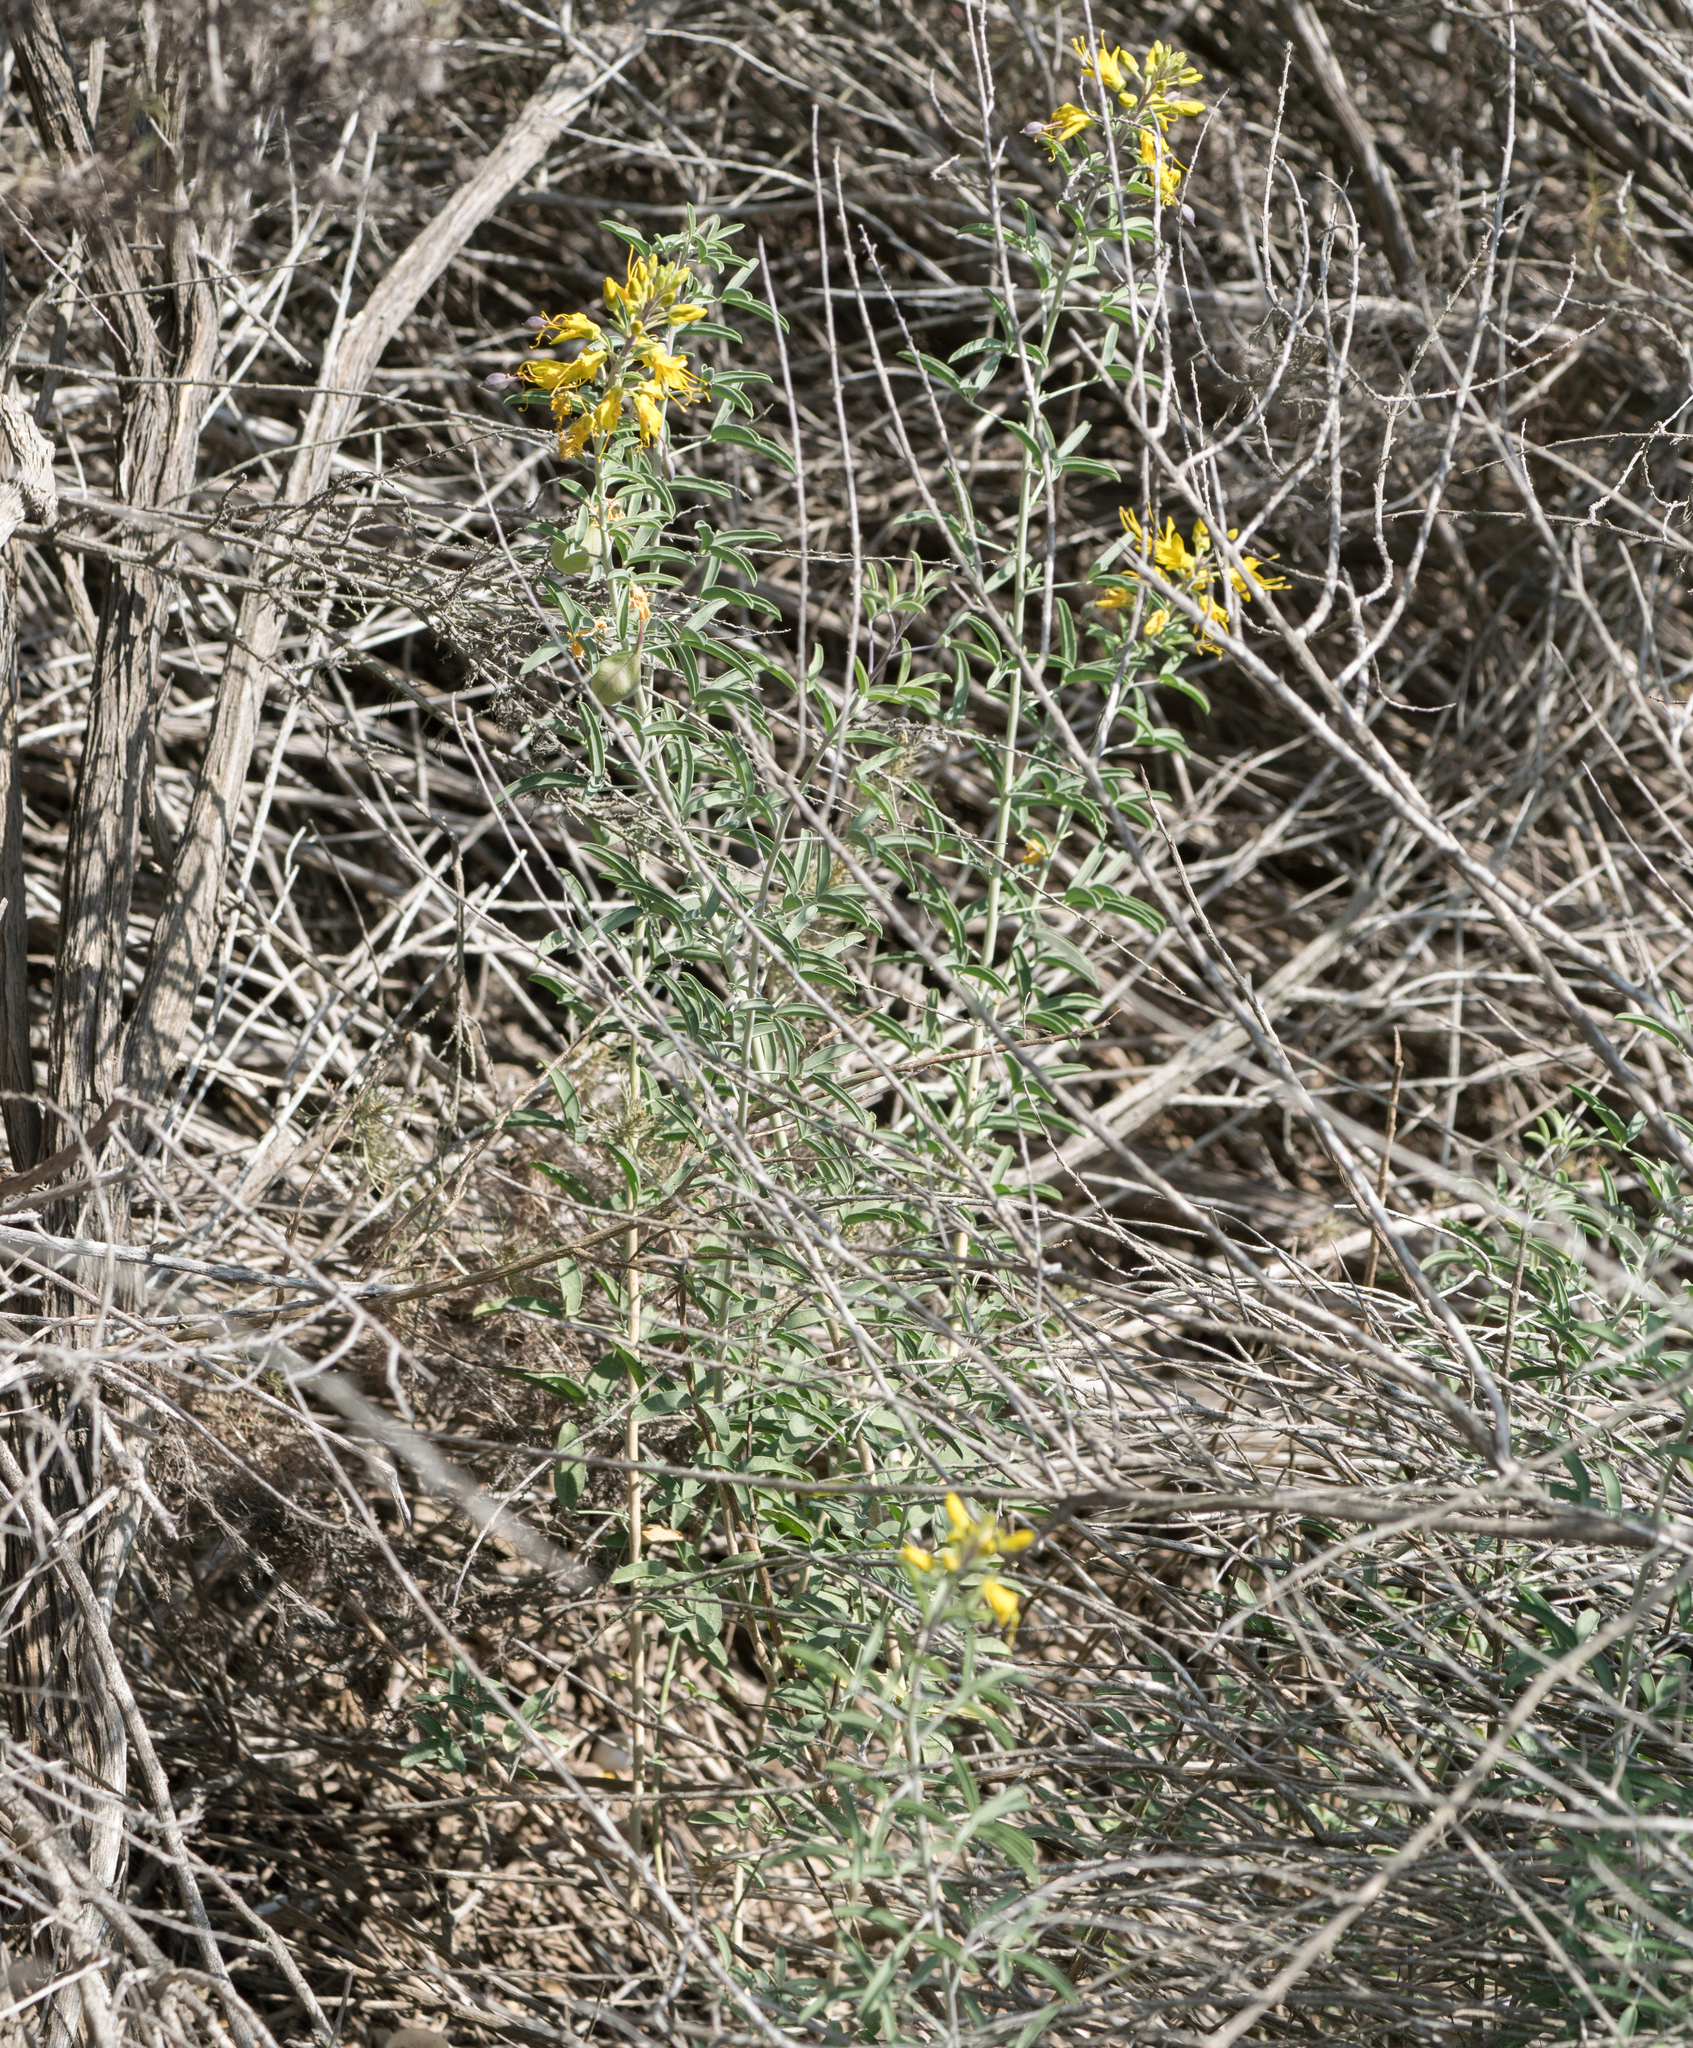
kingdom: Plantae
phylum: Tracheophyta
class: Magnoliopsida
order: Brassicales
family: Cleomaceae
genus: Cleomella
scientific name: Cleomella arborea
